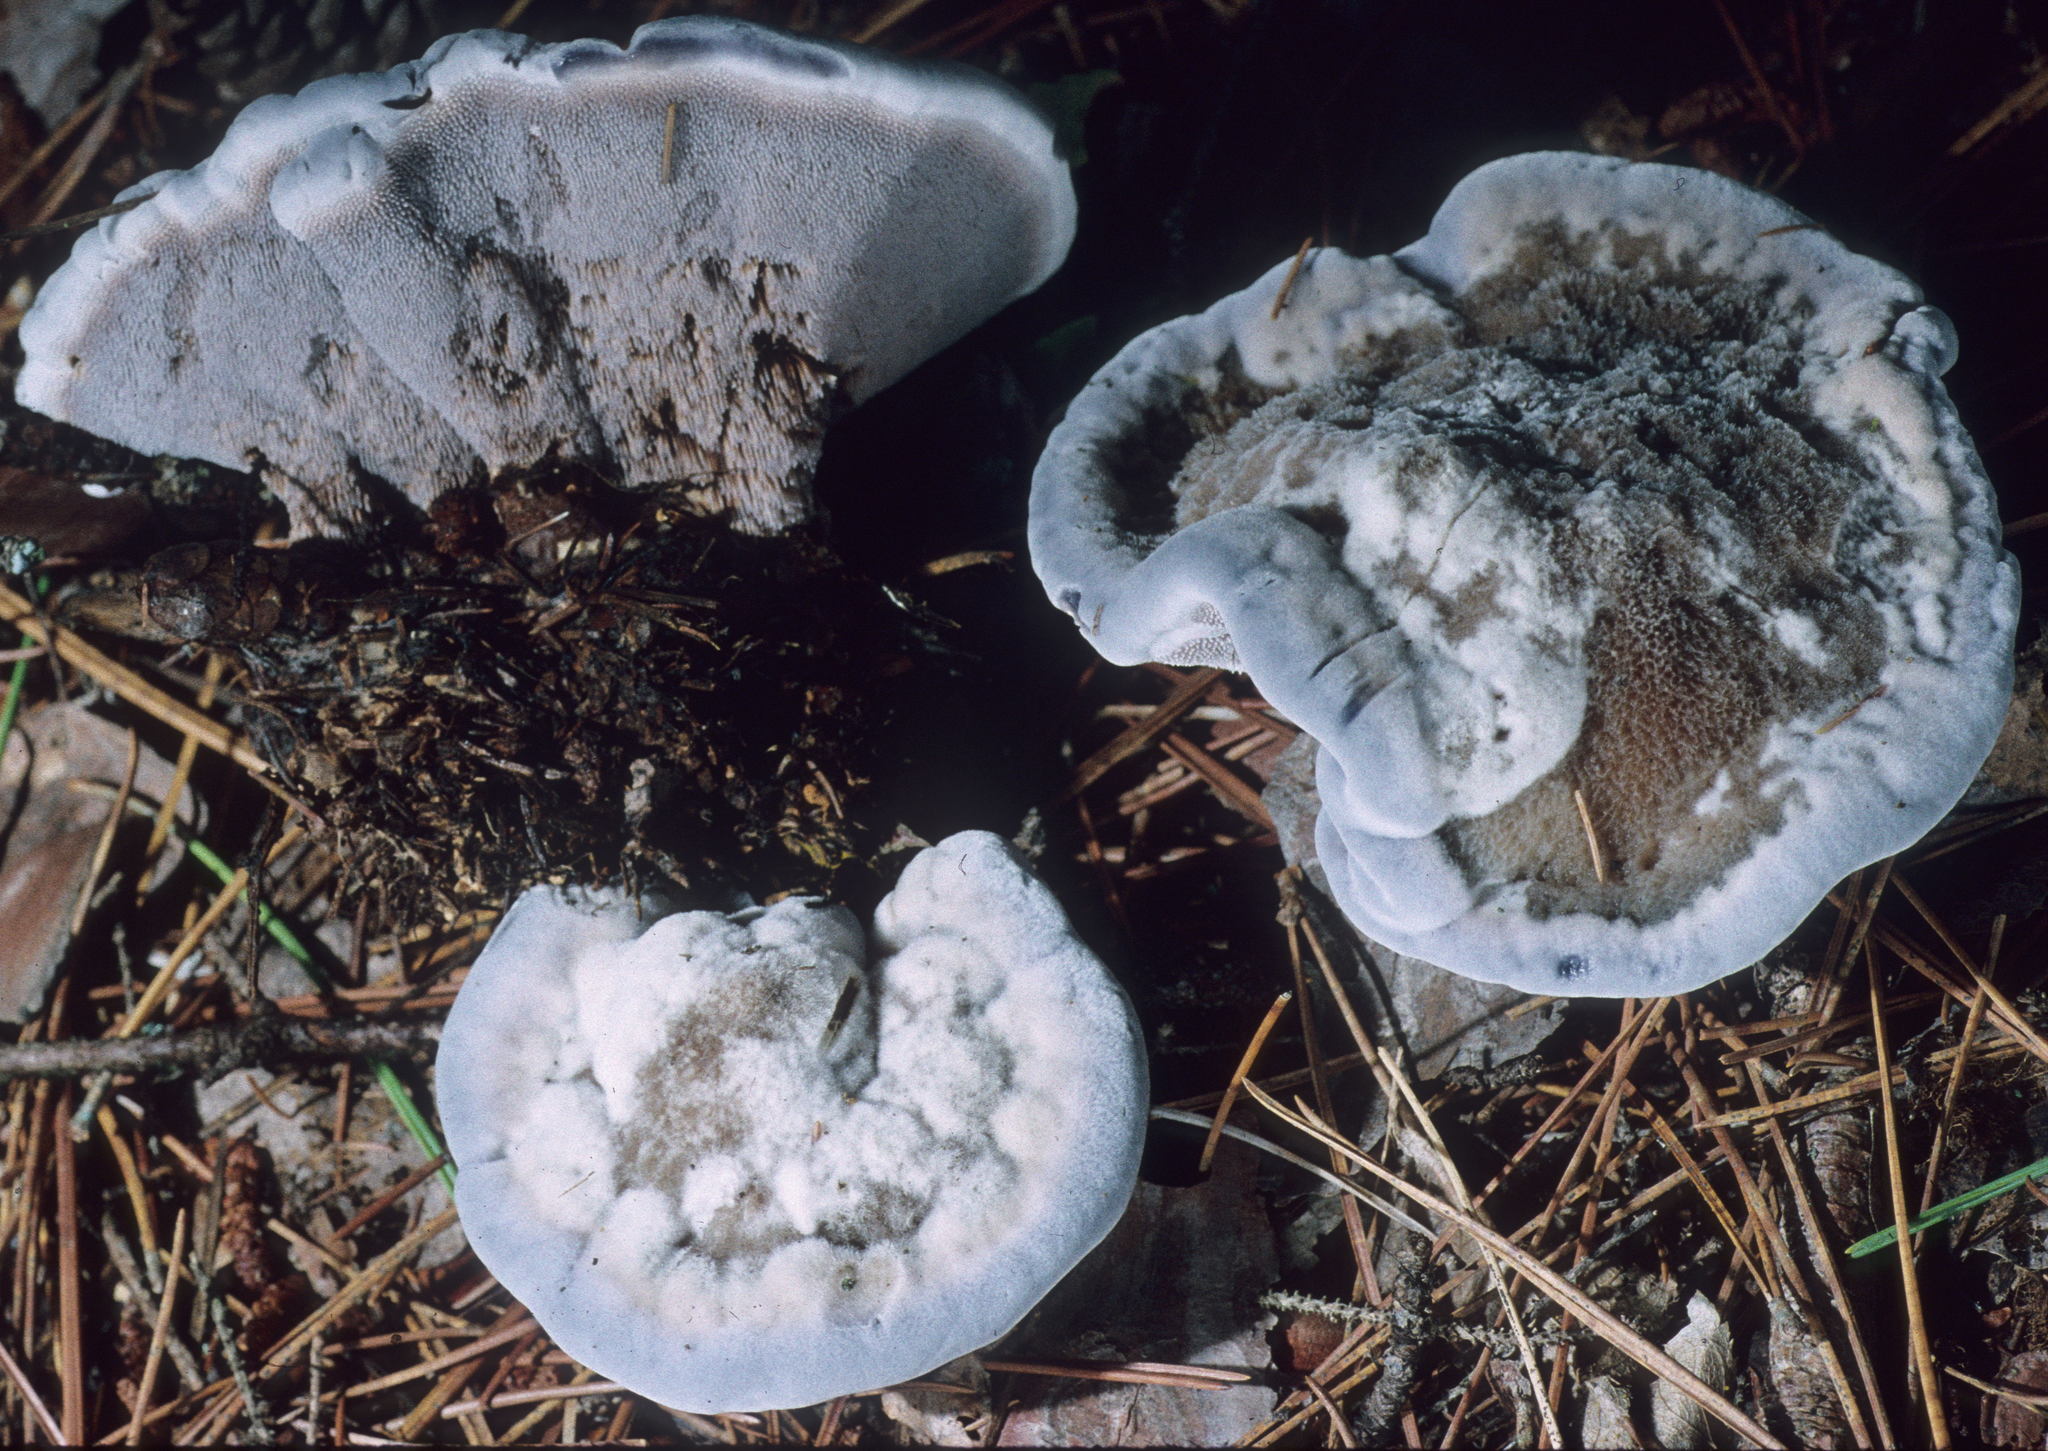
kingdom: Fungi
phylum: Basidiomycota
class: Agaricomycetes
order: Thelephorales
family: Bankeraceae
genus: Hydnellum
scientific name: Hydnellum caeruleum
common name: Blue corky spine fungus
